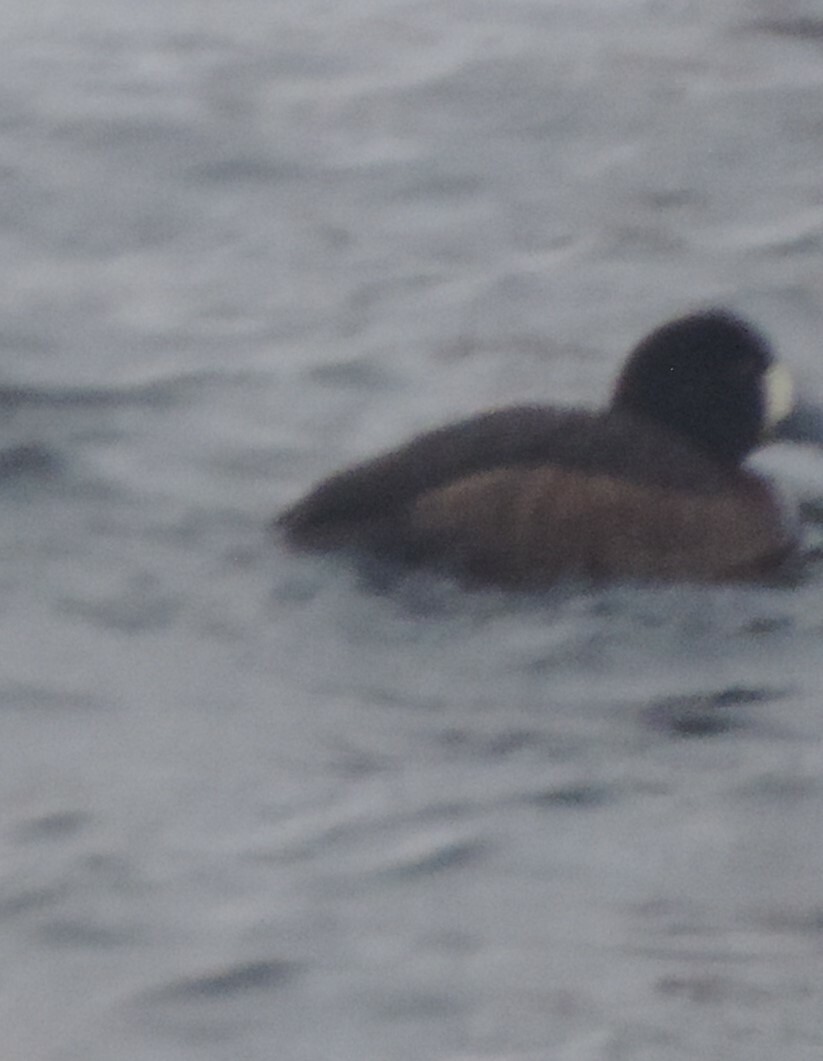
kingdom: Animalia
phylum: Chordata
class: Aves
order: Anseriformes
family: Anatidae
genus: Aythya
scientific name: Aythya marila
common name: Greater scaup
